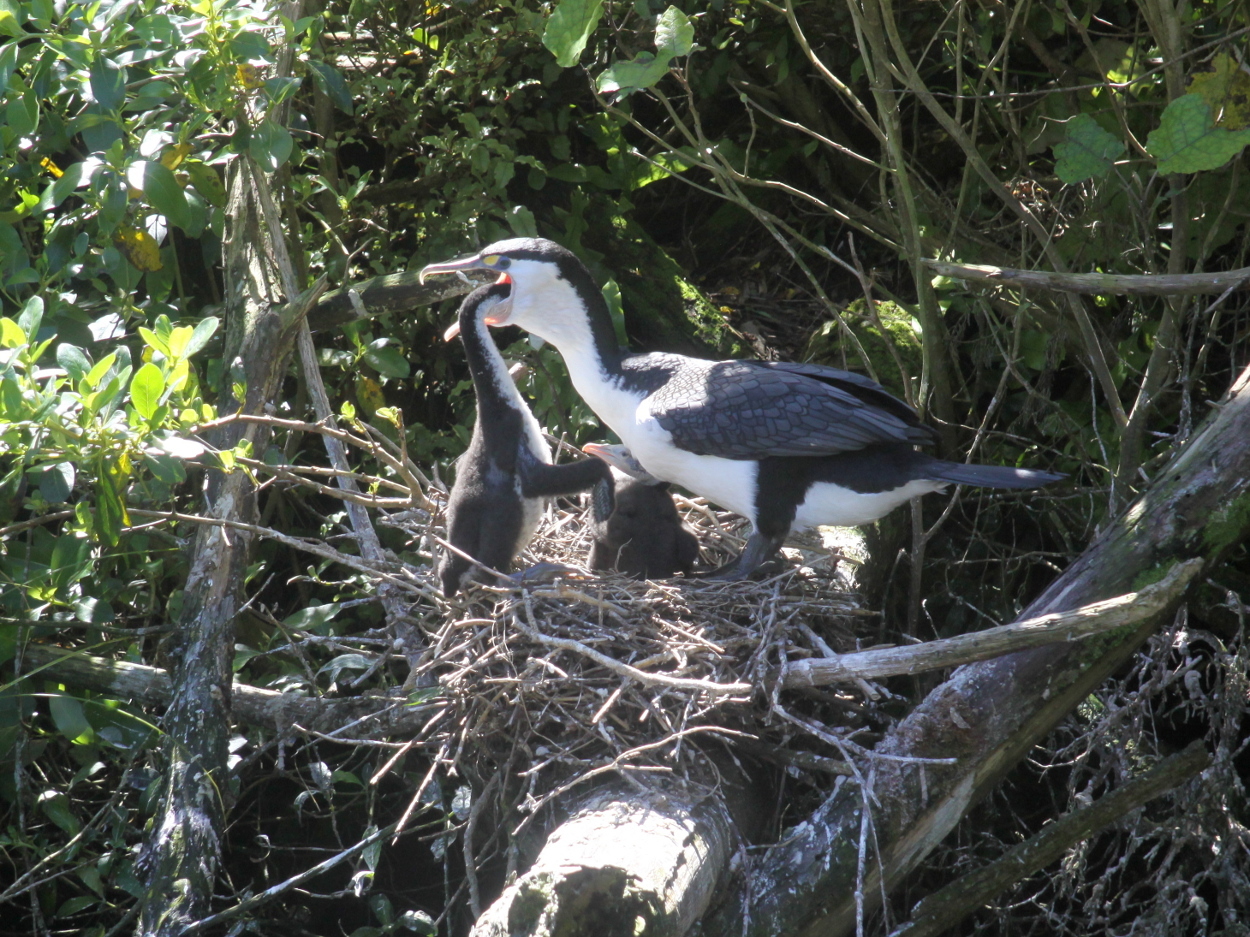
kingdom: Animalia
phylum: Chordata
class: Aves
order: Suliformes
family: Phalacrocoracidae
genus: Phalacrocorax
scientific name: Phalacrocorax varius
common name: Pied cormorant
